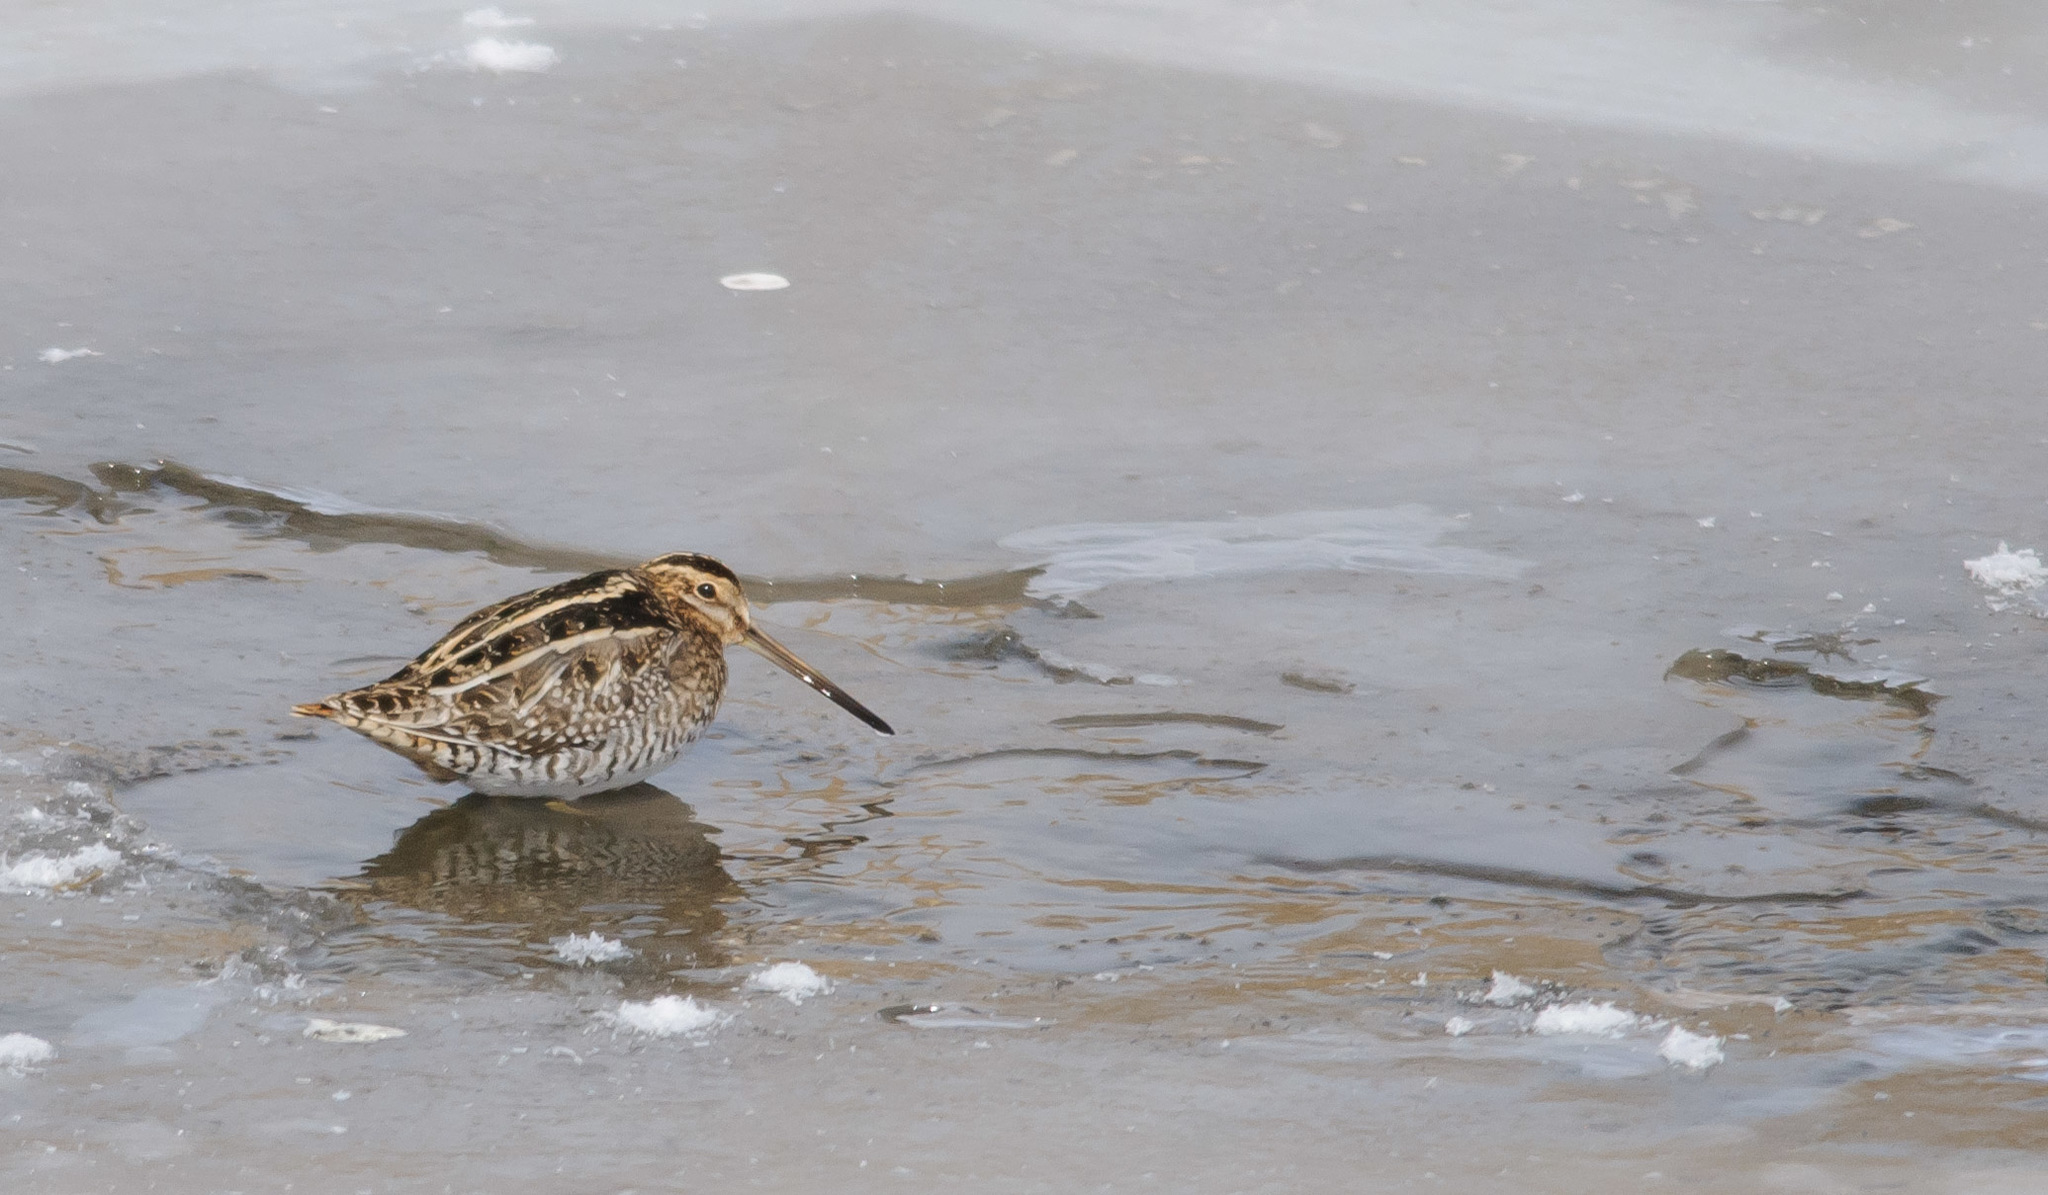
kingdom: Animalia
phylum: Chordata
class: Aves
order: Charadriiformes
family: Scolopacidae
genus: Gallinago
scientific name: Gallinago delicata
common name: Wilson's snipe
